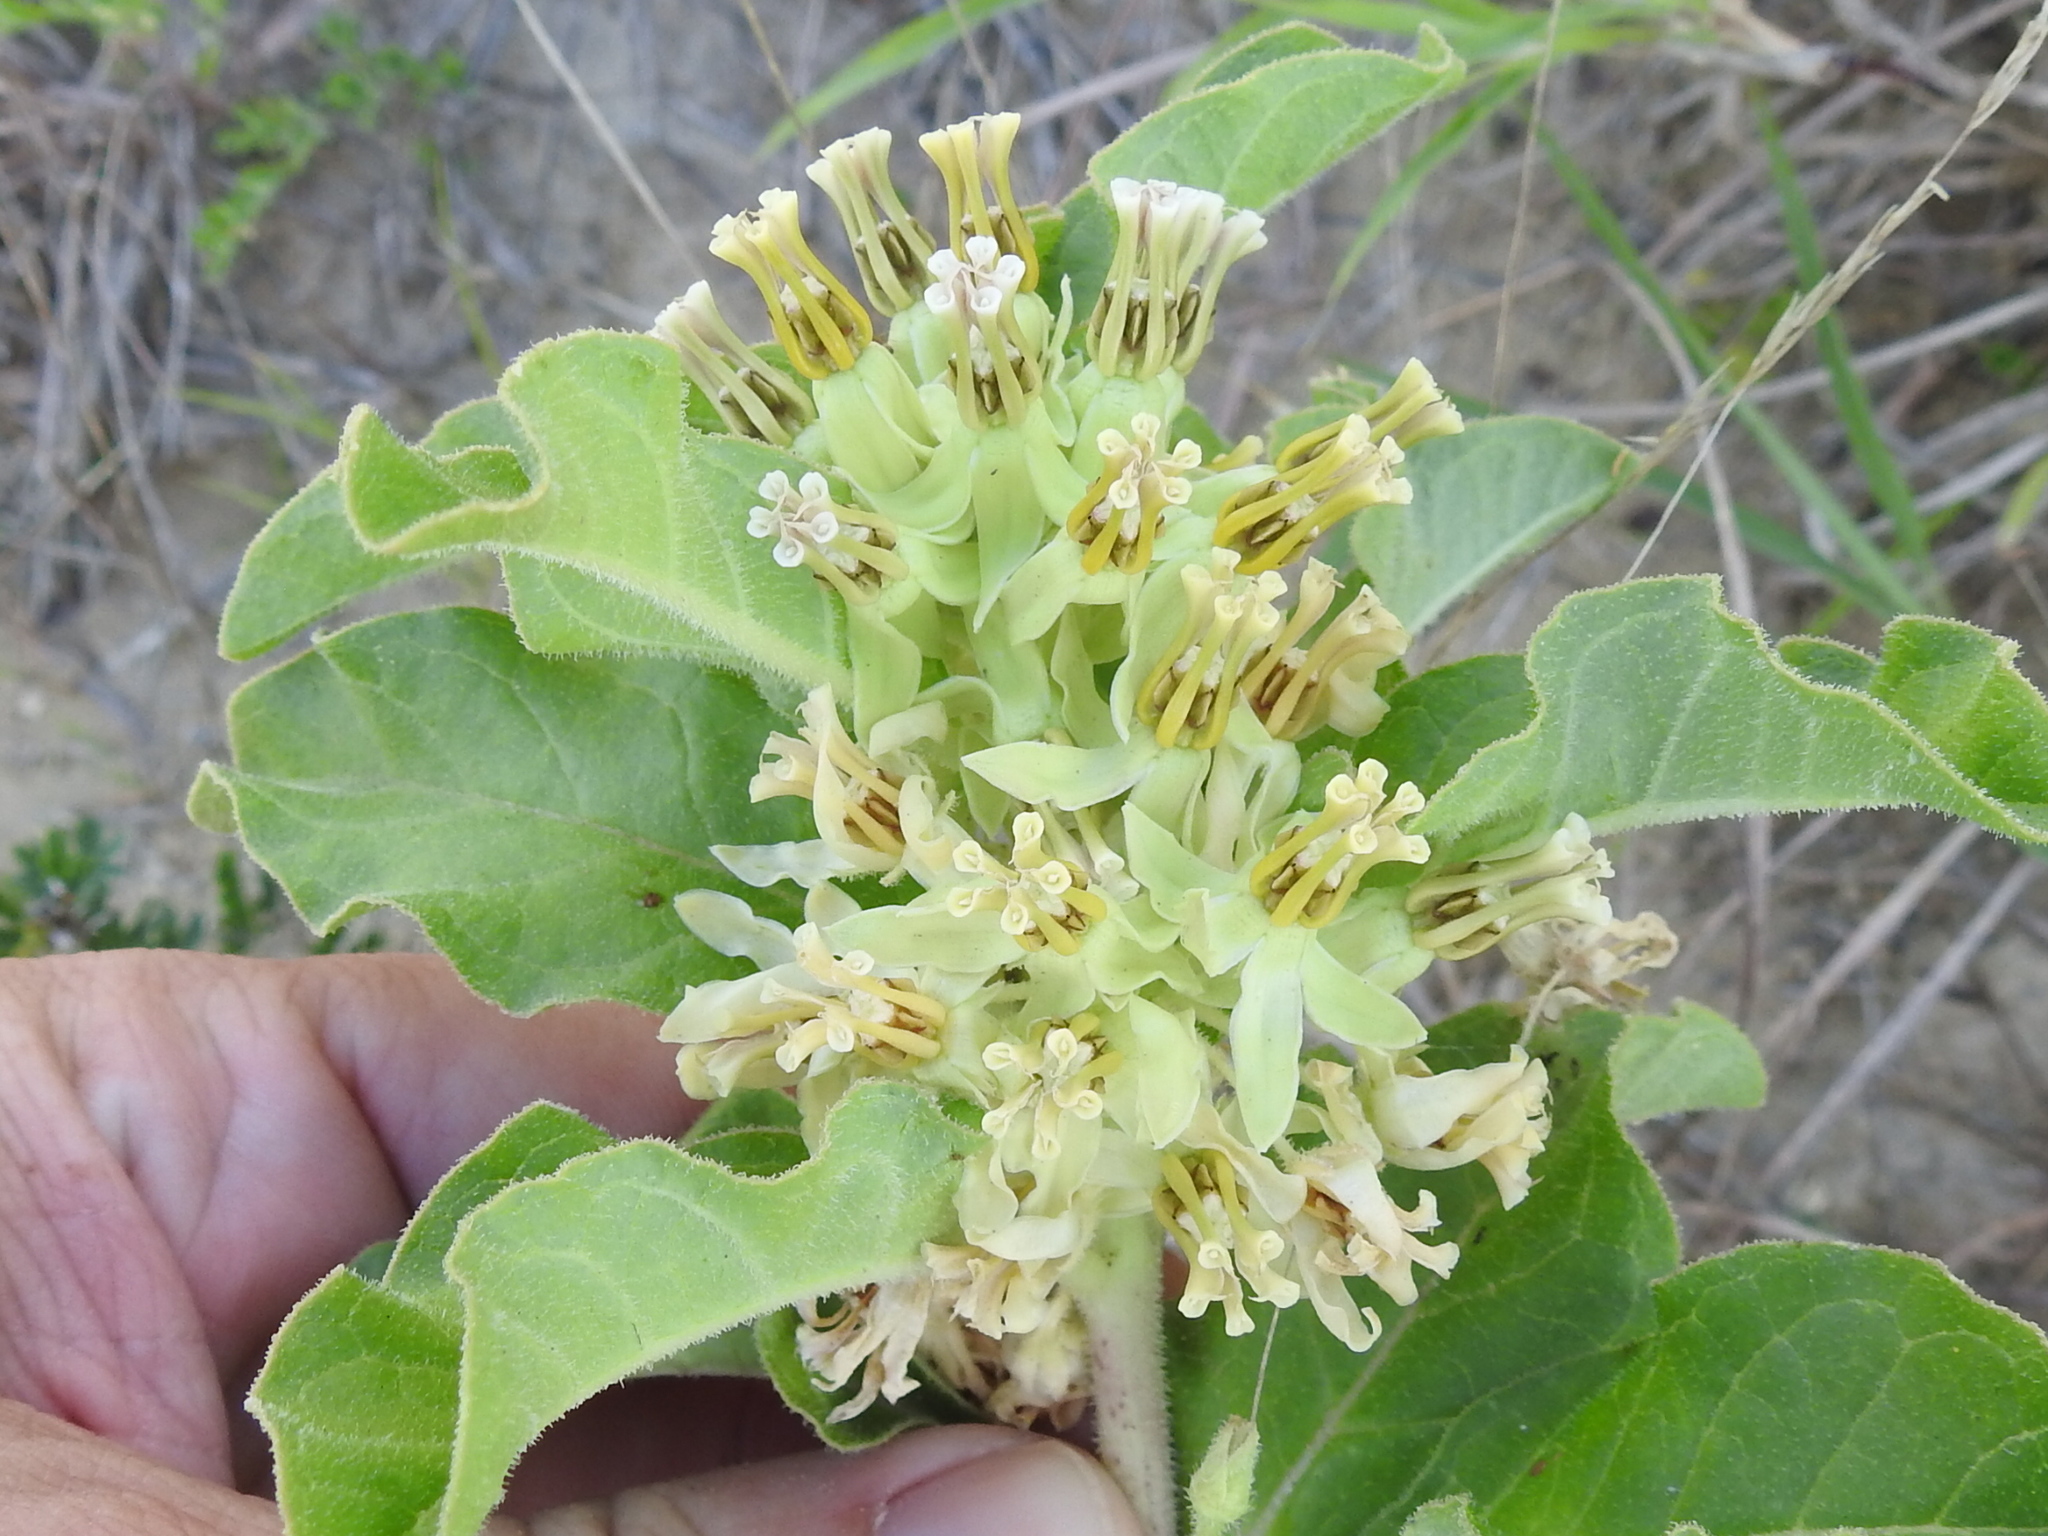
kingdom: Plantae
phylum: Tracheophyta
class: Magnoliopsida
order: Gentianales
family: Apocynaceae
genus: Asclepias
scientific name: Asclepias oenotheroides
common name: Zizotes milkweed
